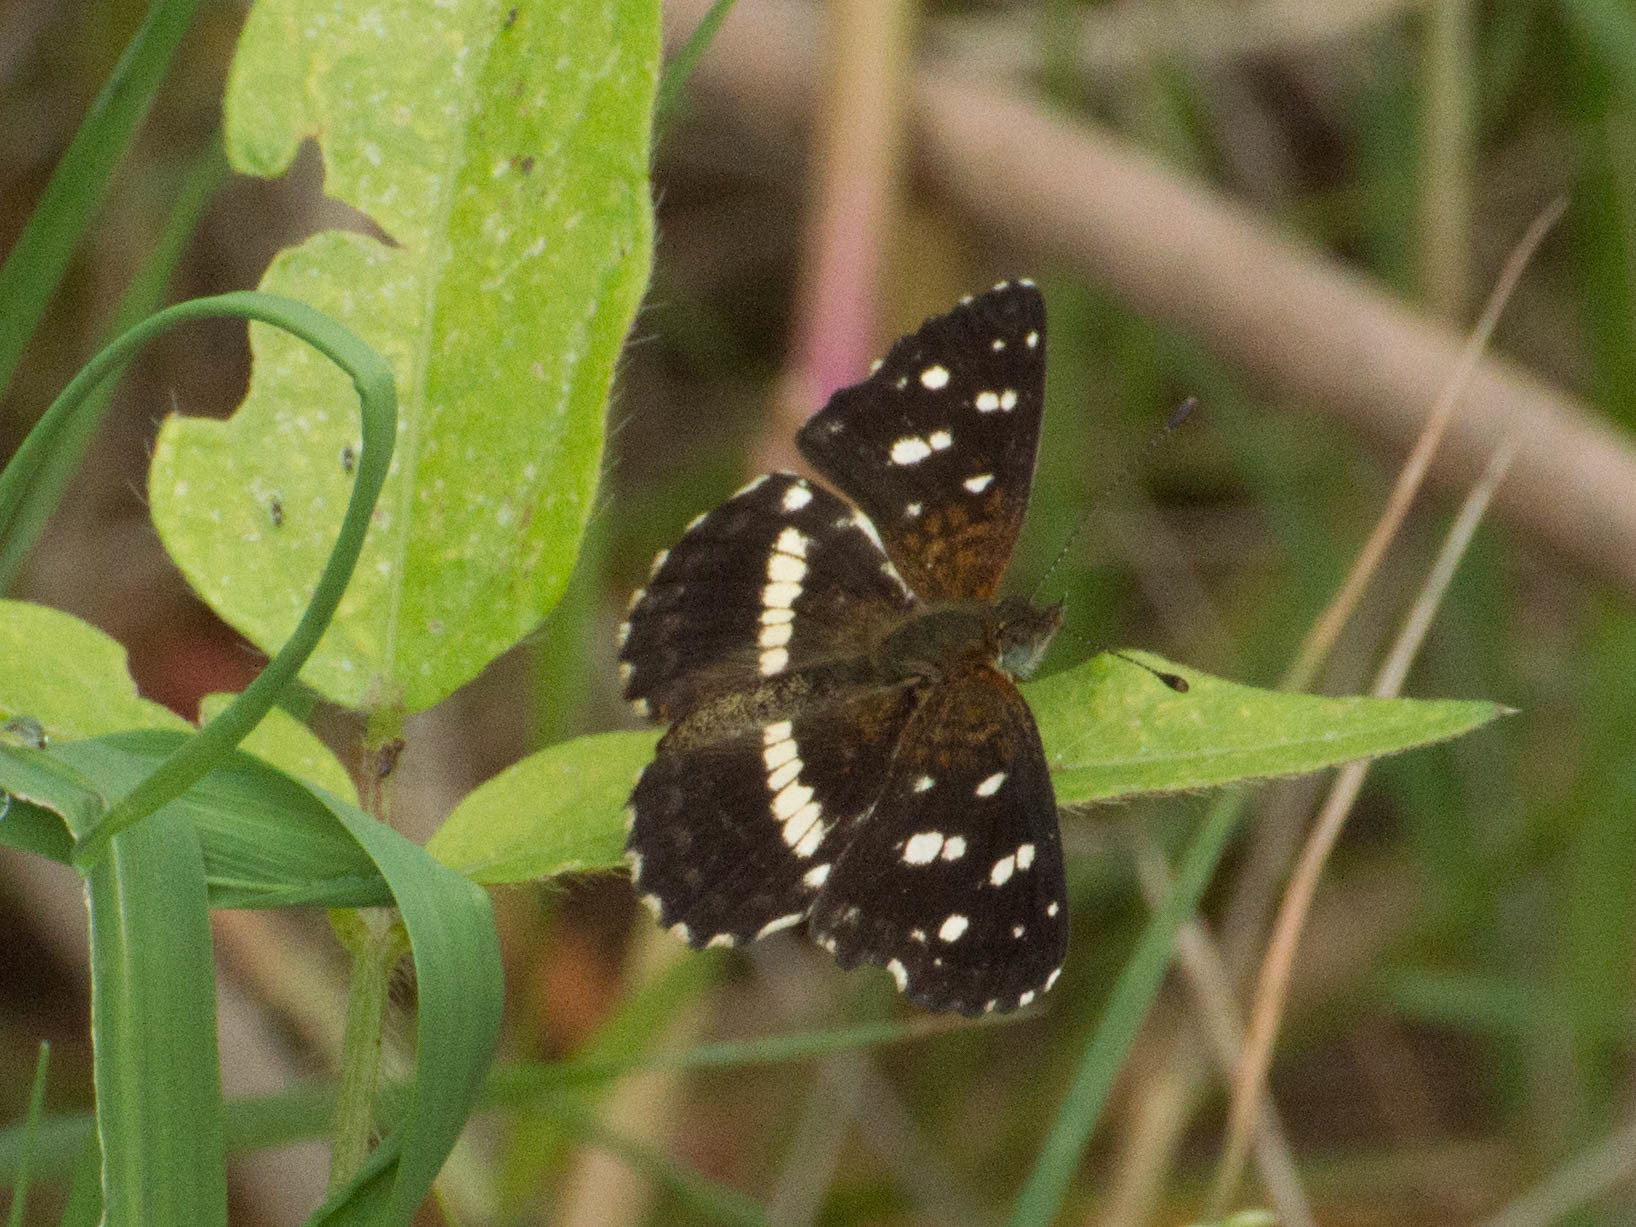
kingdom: Animalia
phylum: Arthropoda
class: Insecta
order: Lepidoptera
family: Nymphalidae
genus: Ortilia
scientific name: Ortilia ithra
